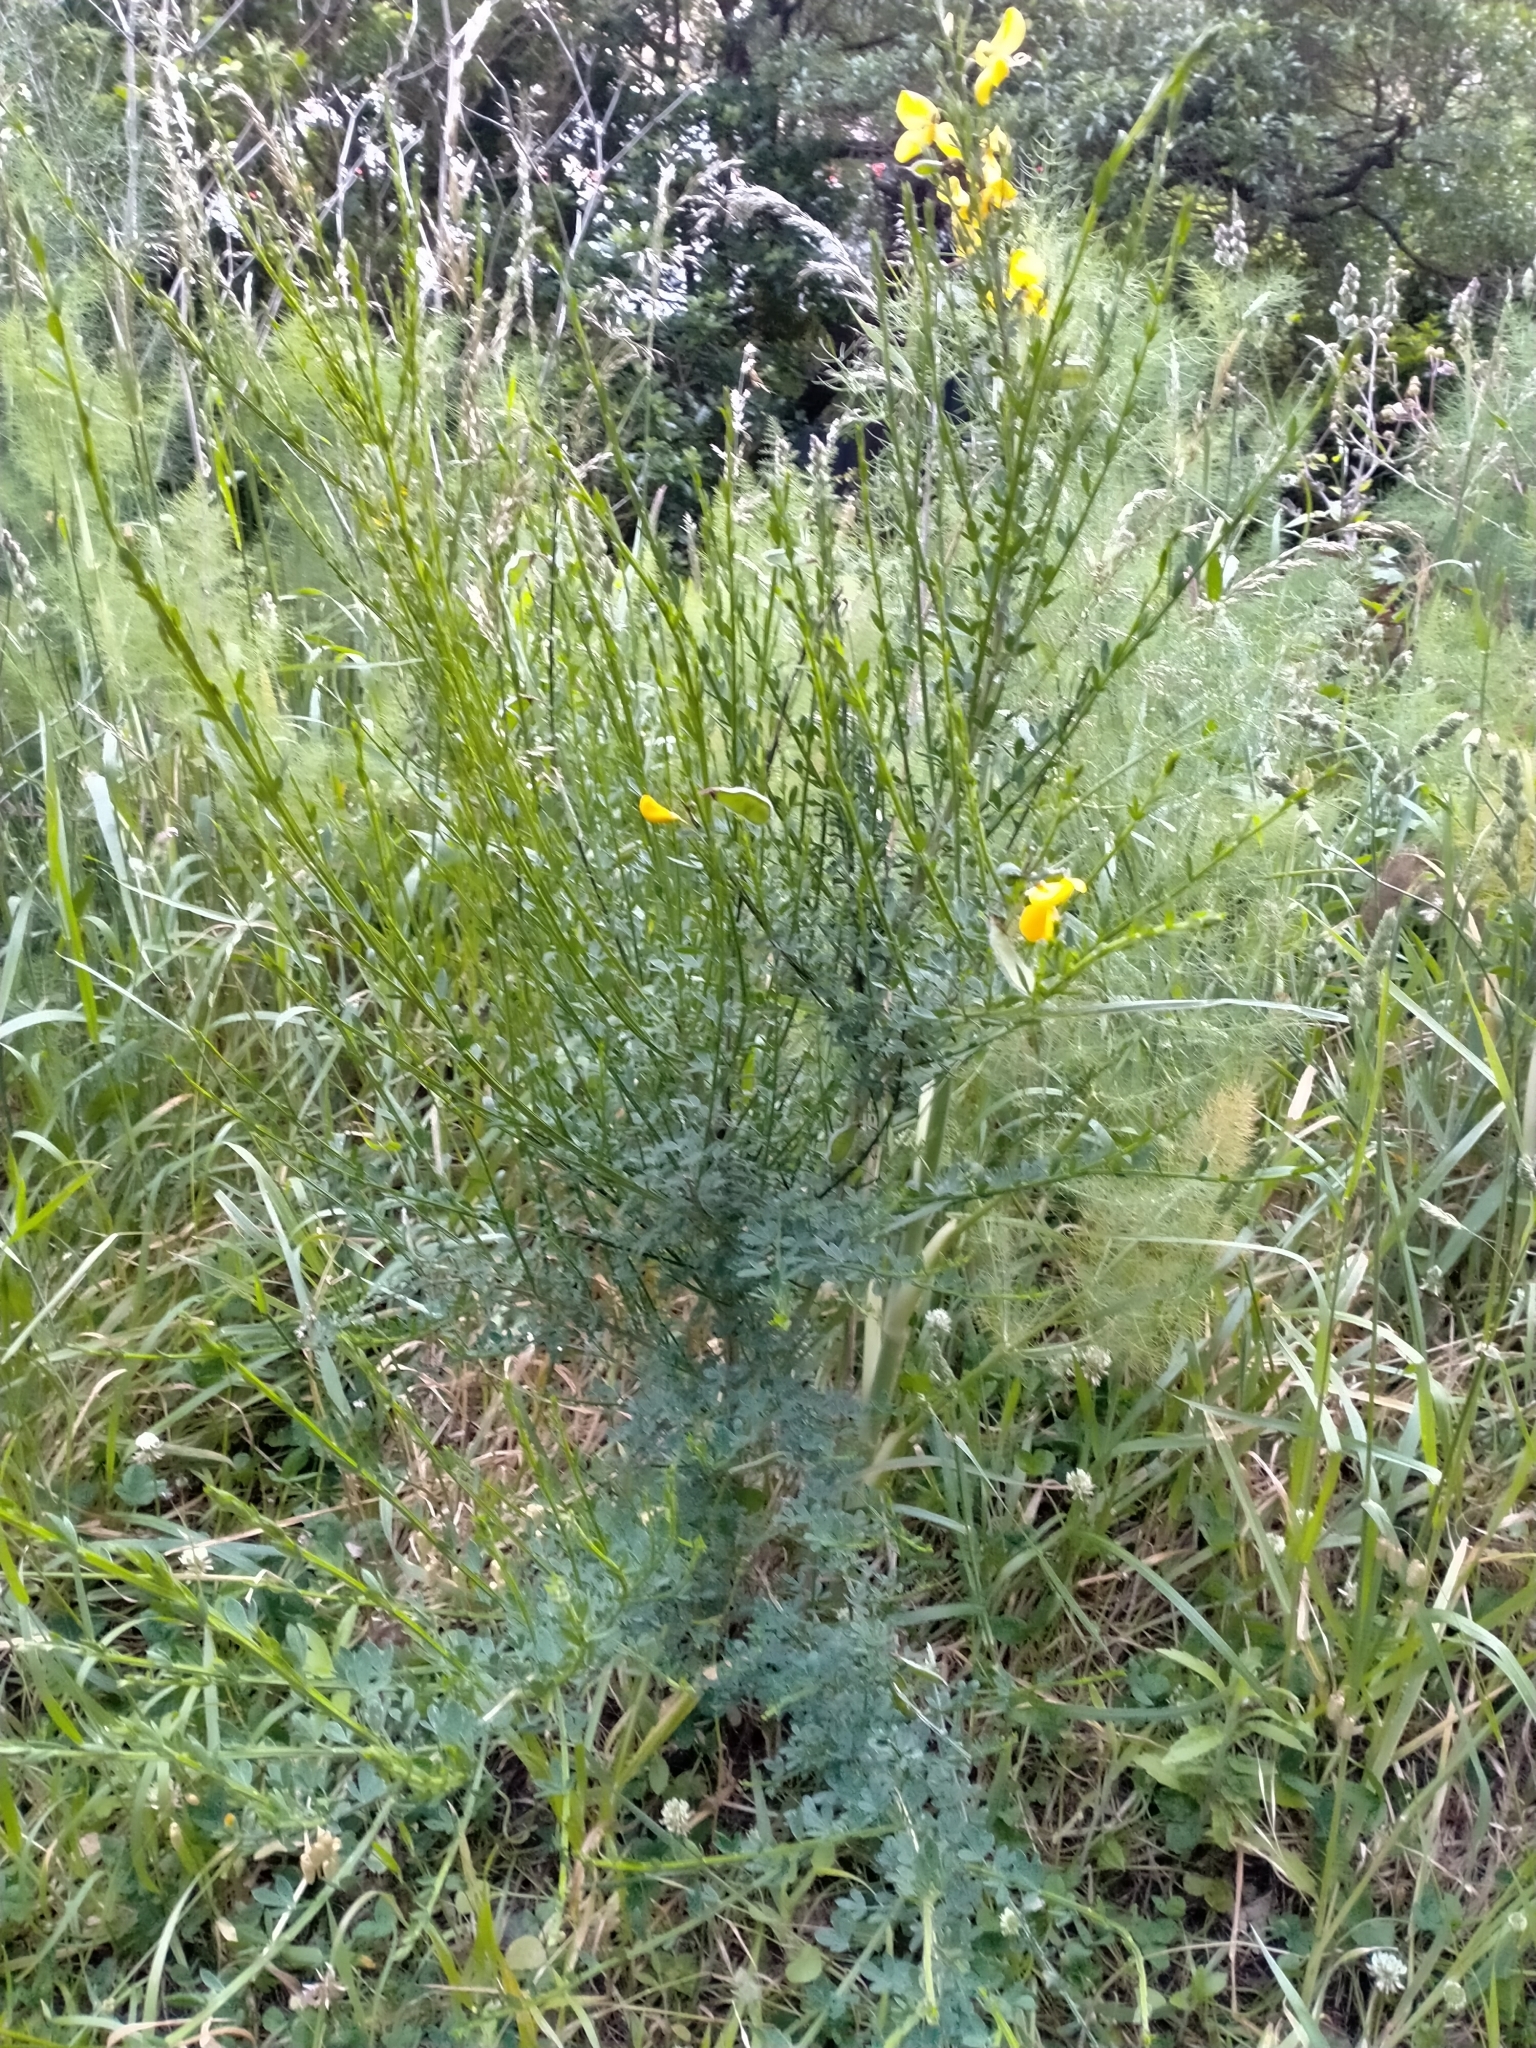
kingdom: Plantae
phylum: Tracheophyta
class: Magnoliopsida
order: Fabales
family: Fabaceae
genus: Cytisus
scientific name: Cytisus scoparius
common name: Scotch broom
